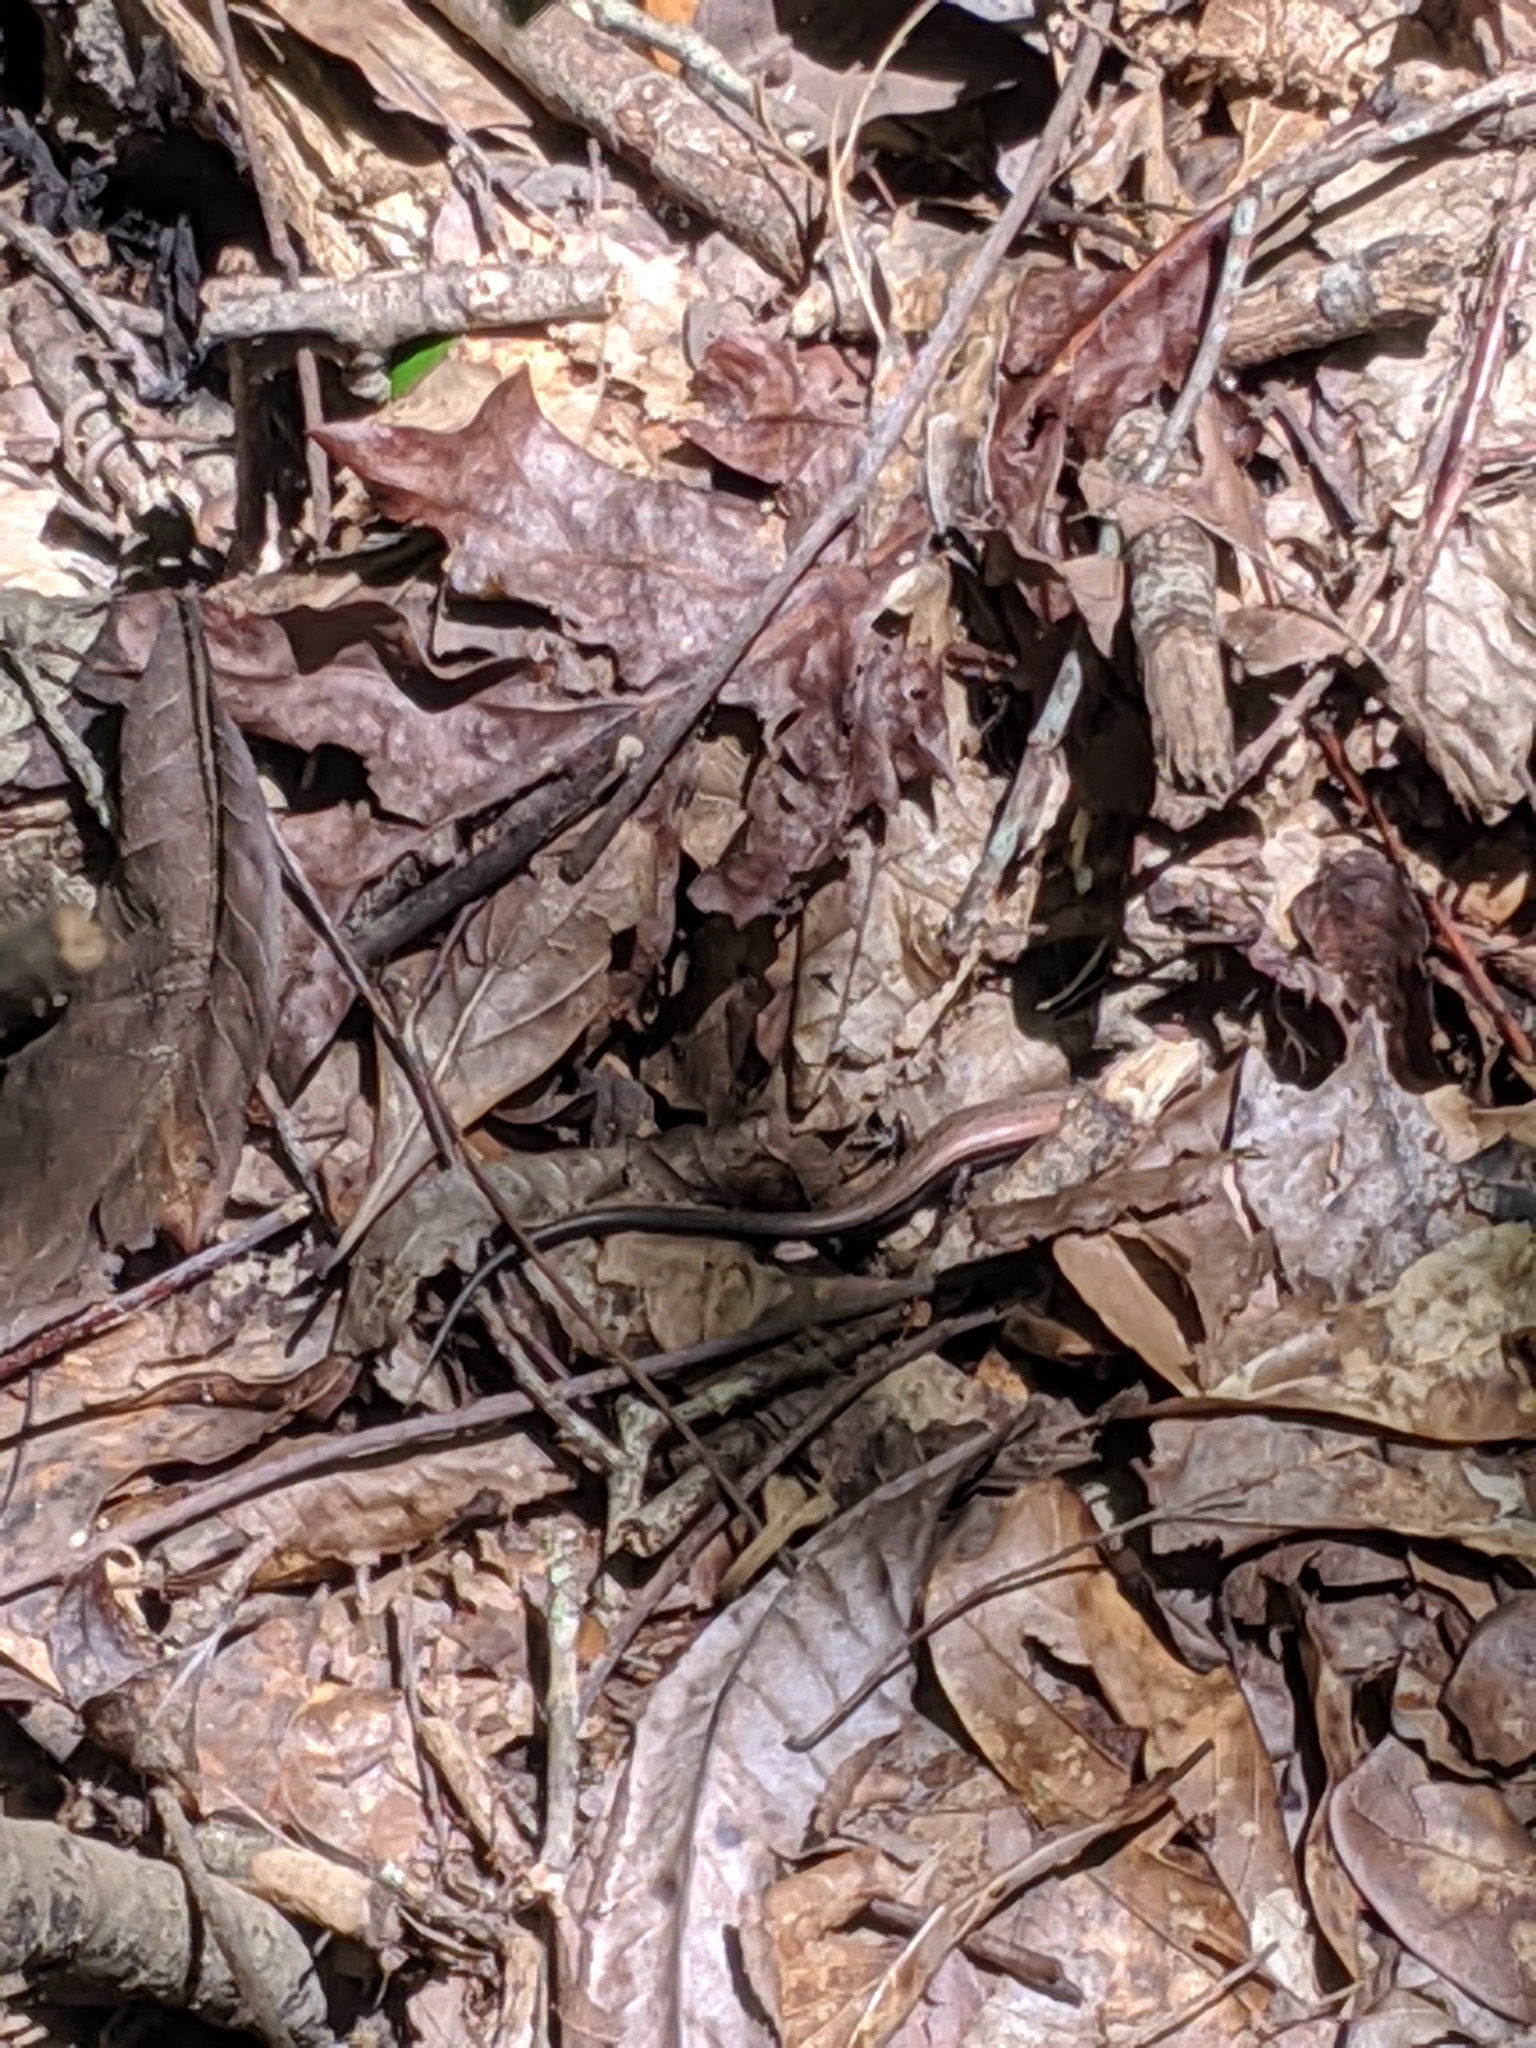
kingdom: Animalia
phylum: Chordata
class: Squamata
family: Scincidae
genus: Scincella
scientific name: Scincella lateralis
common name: Ground skink
